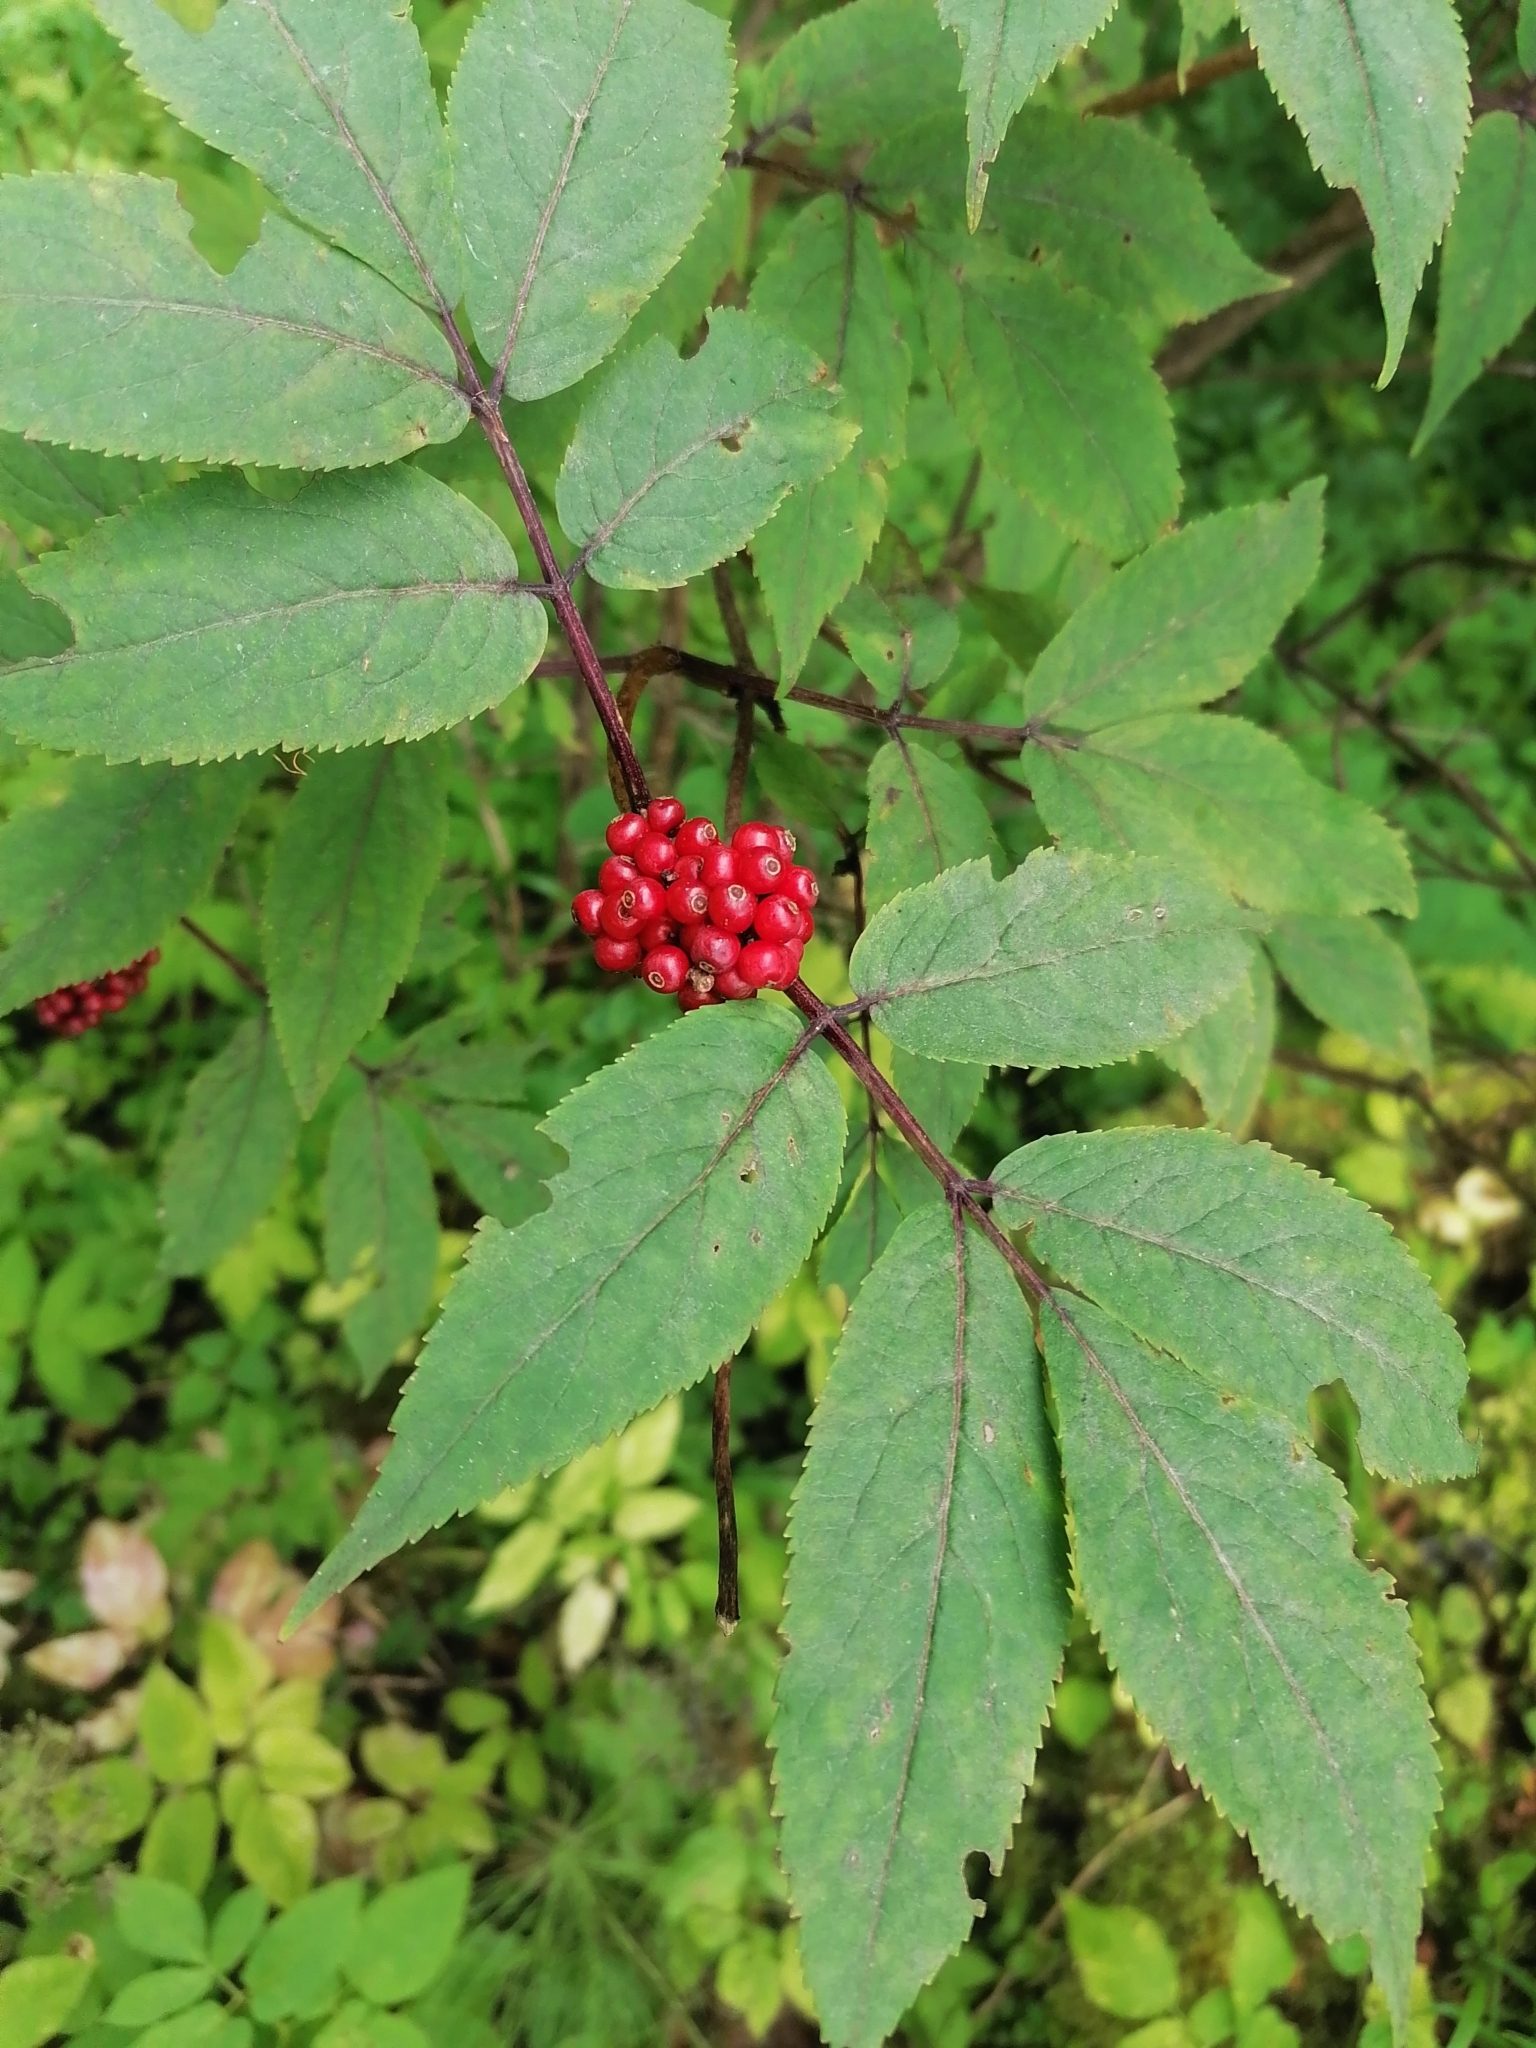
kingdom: Plantae
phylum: Tracheophyta
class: Magnoliopsida
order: Dipsacales
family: Viburnaceae
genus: Sambucus
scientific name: Sambucus racemosa
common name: Red-berried elder
